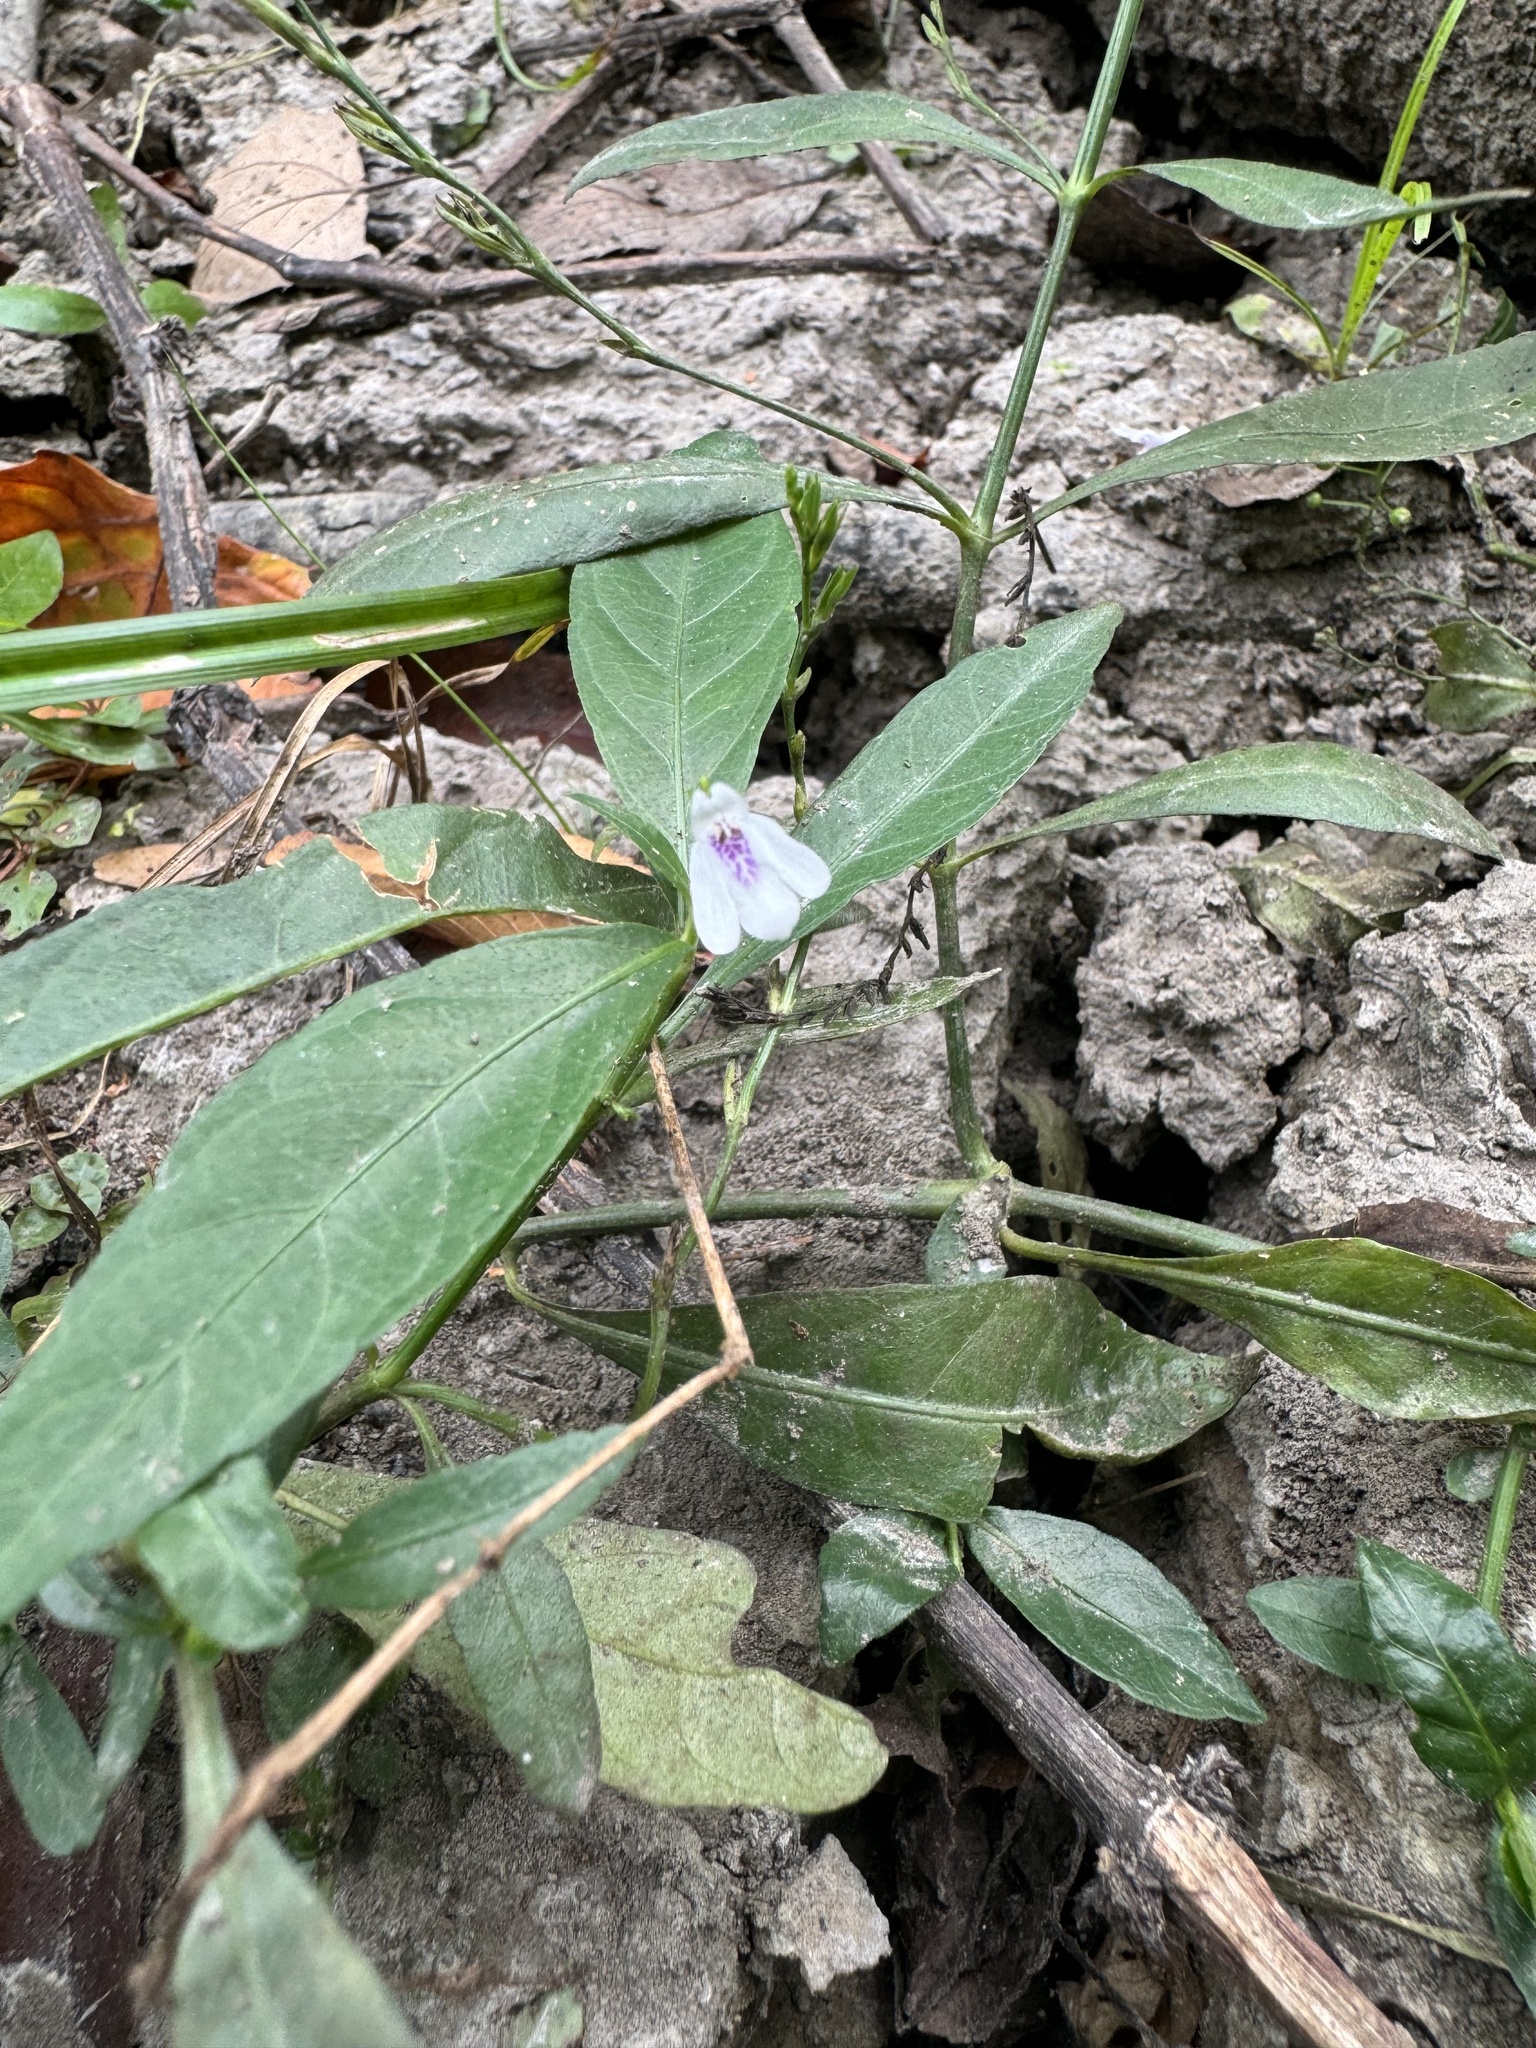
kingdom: Plantae
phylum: Tracheophyta
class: Magnoliopsida
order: Lamiales
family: Acanthaceae
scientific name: Acanthaceae
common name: Acanthaceae
